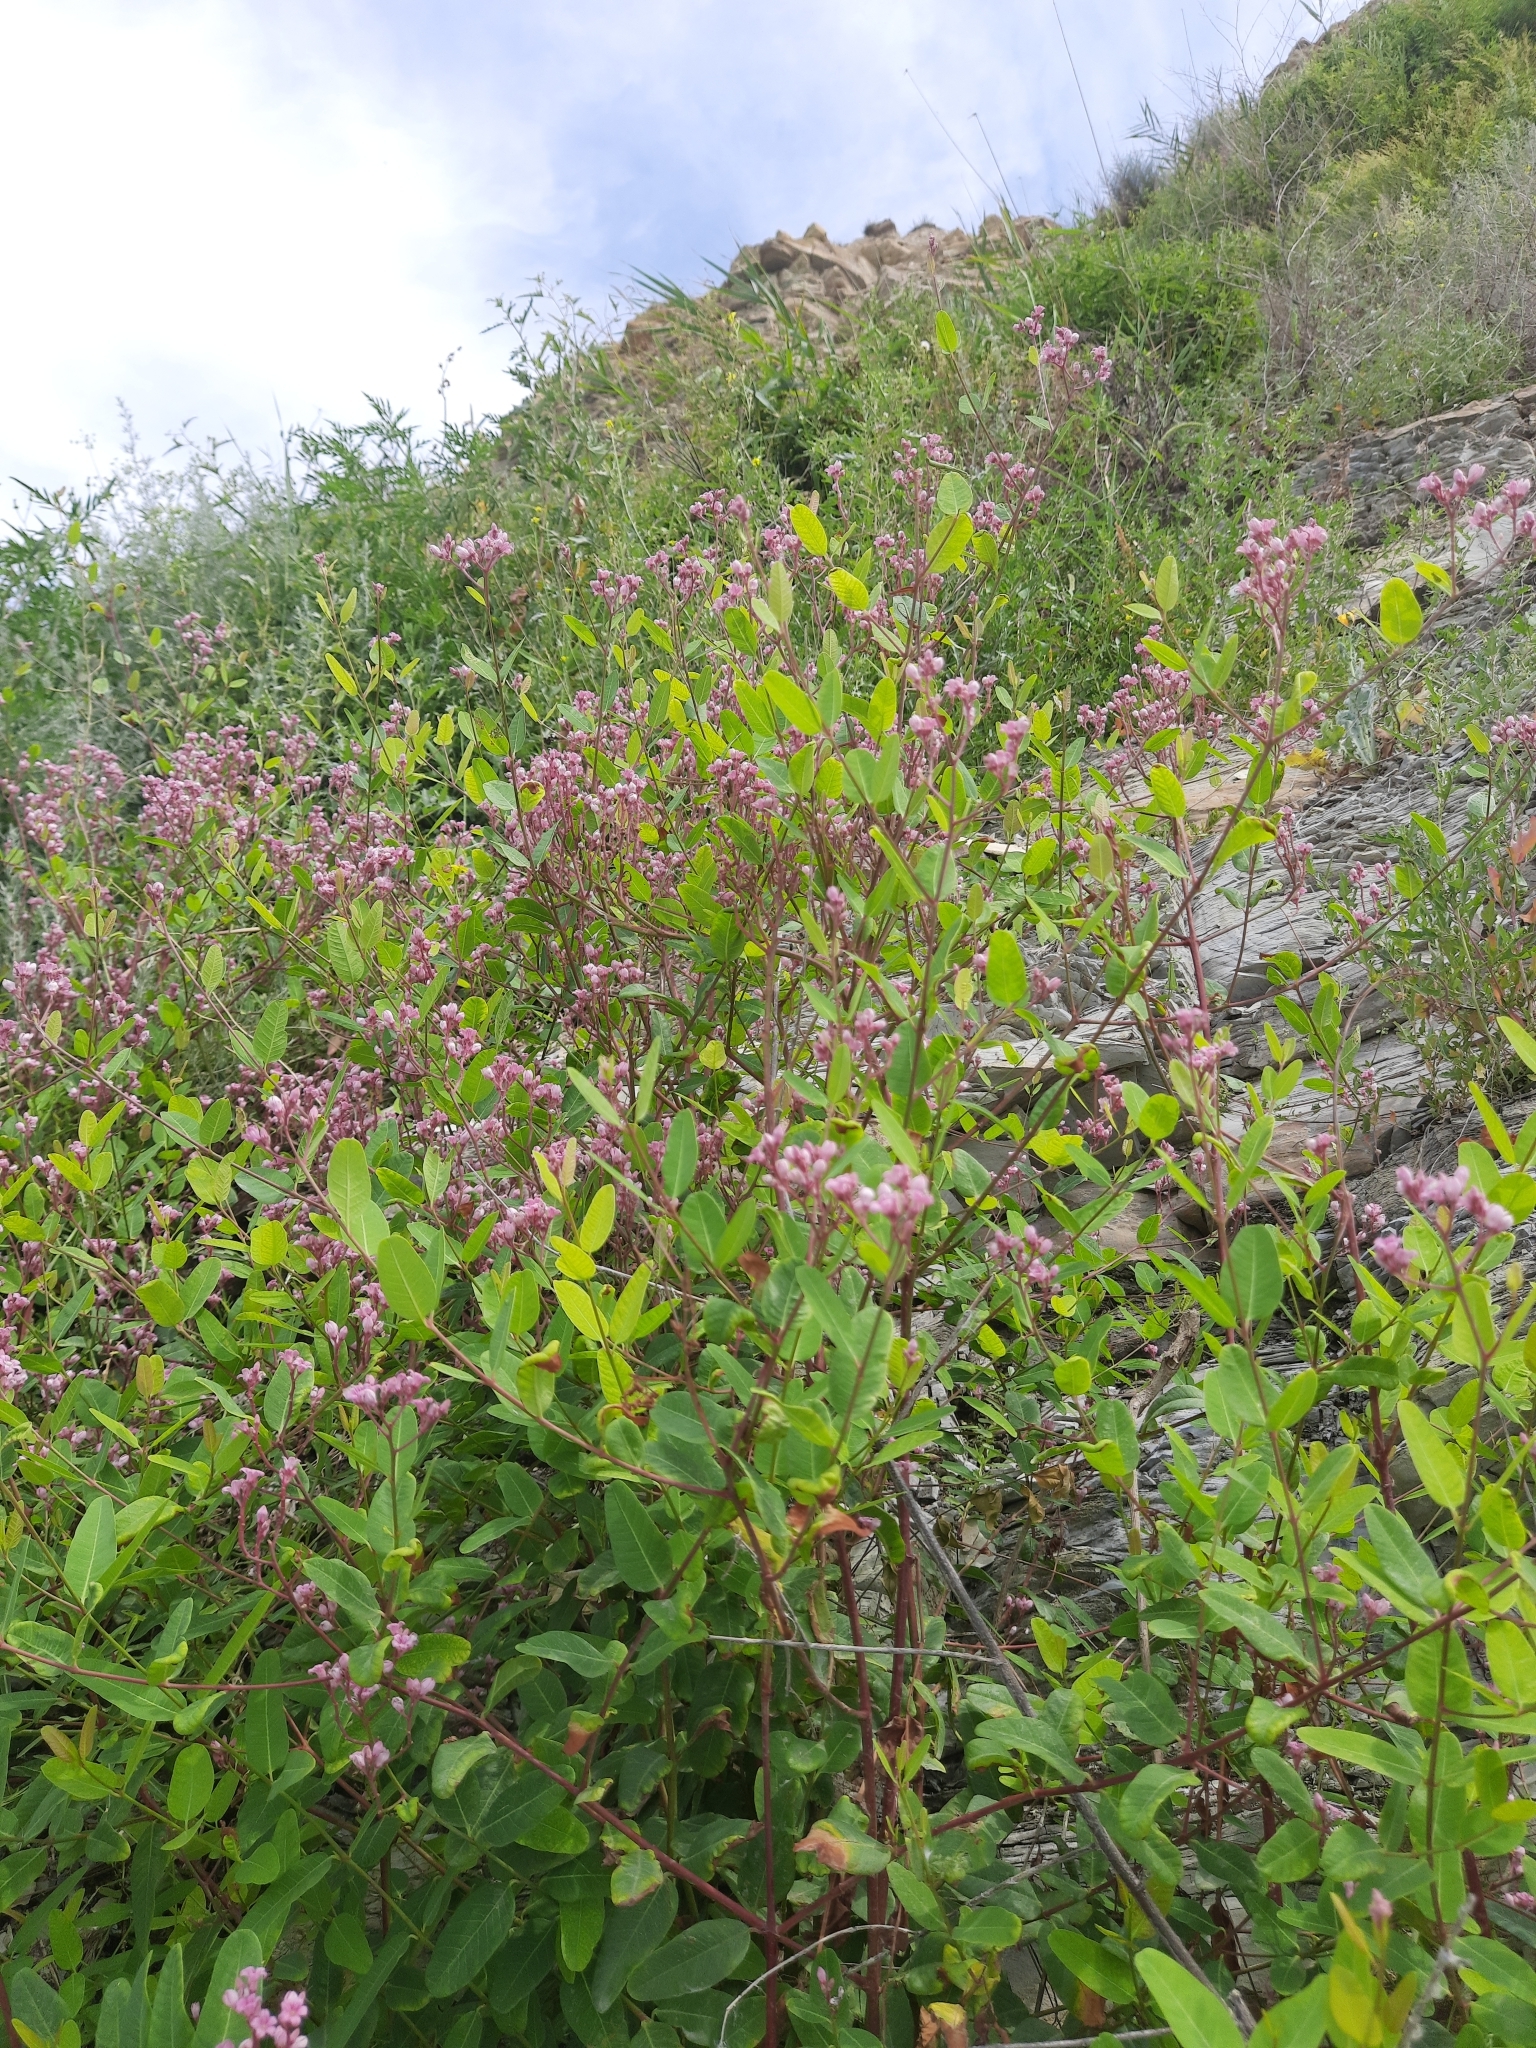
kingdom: Plantae
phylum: Tracheophyta
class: Magnoliopsida
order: Gentianales
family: Apocynaceae
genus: Poacynum
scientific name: Poacynum venetum
